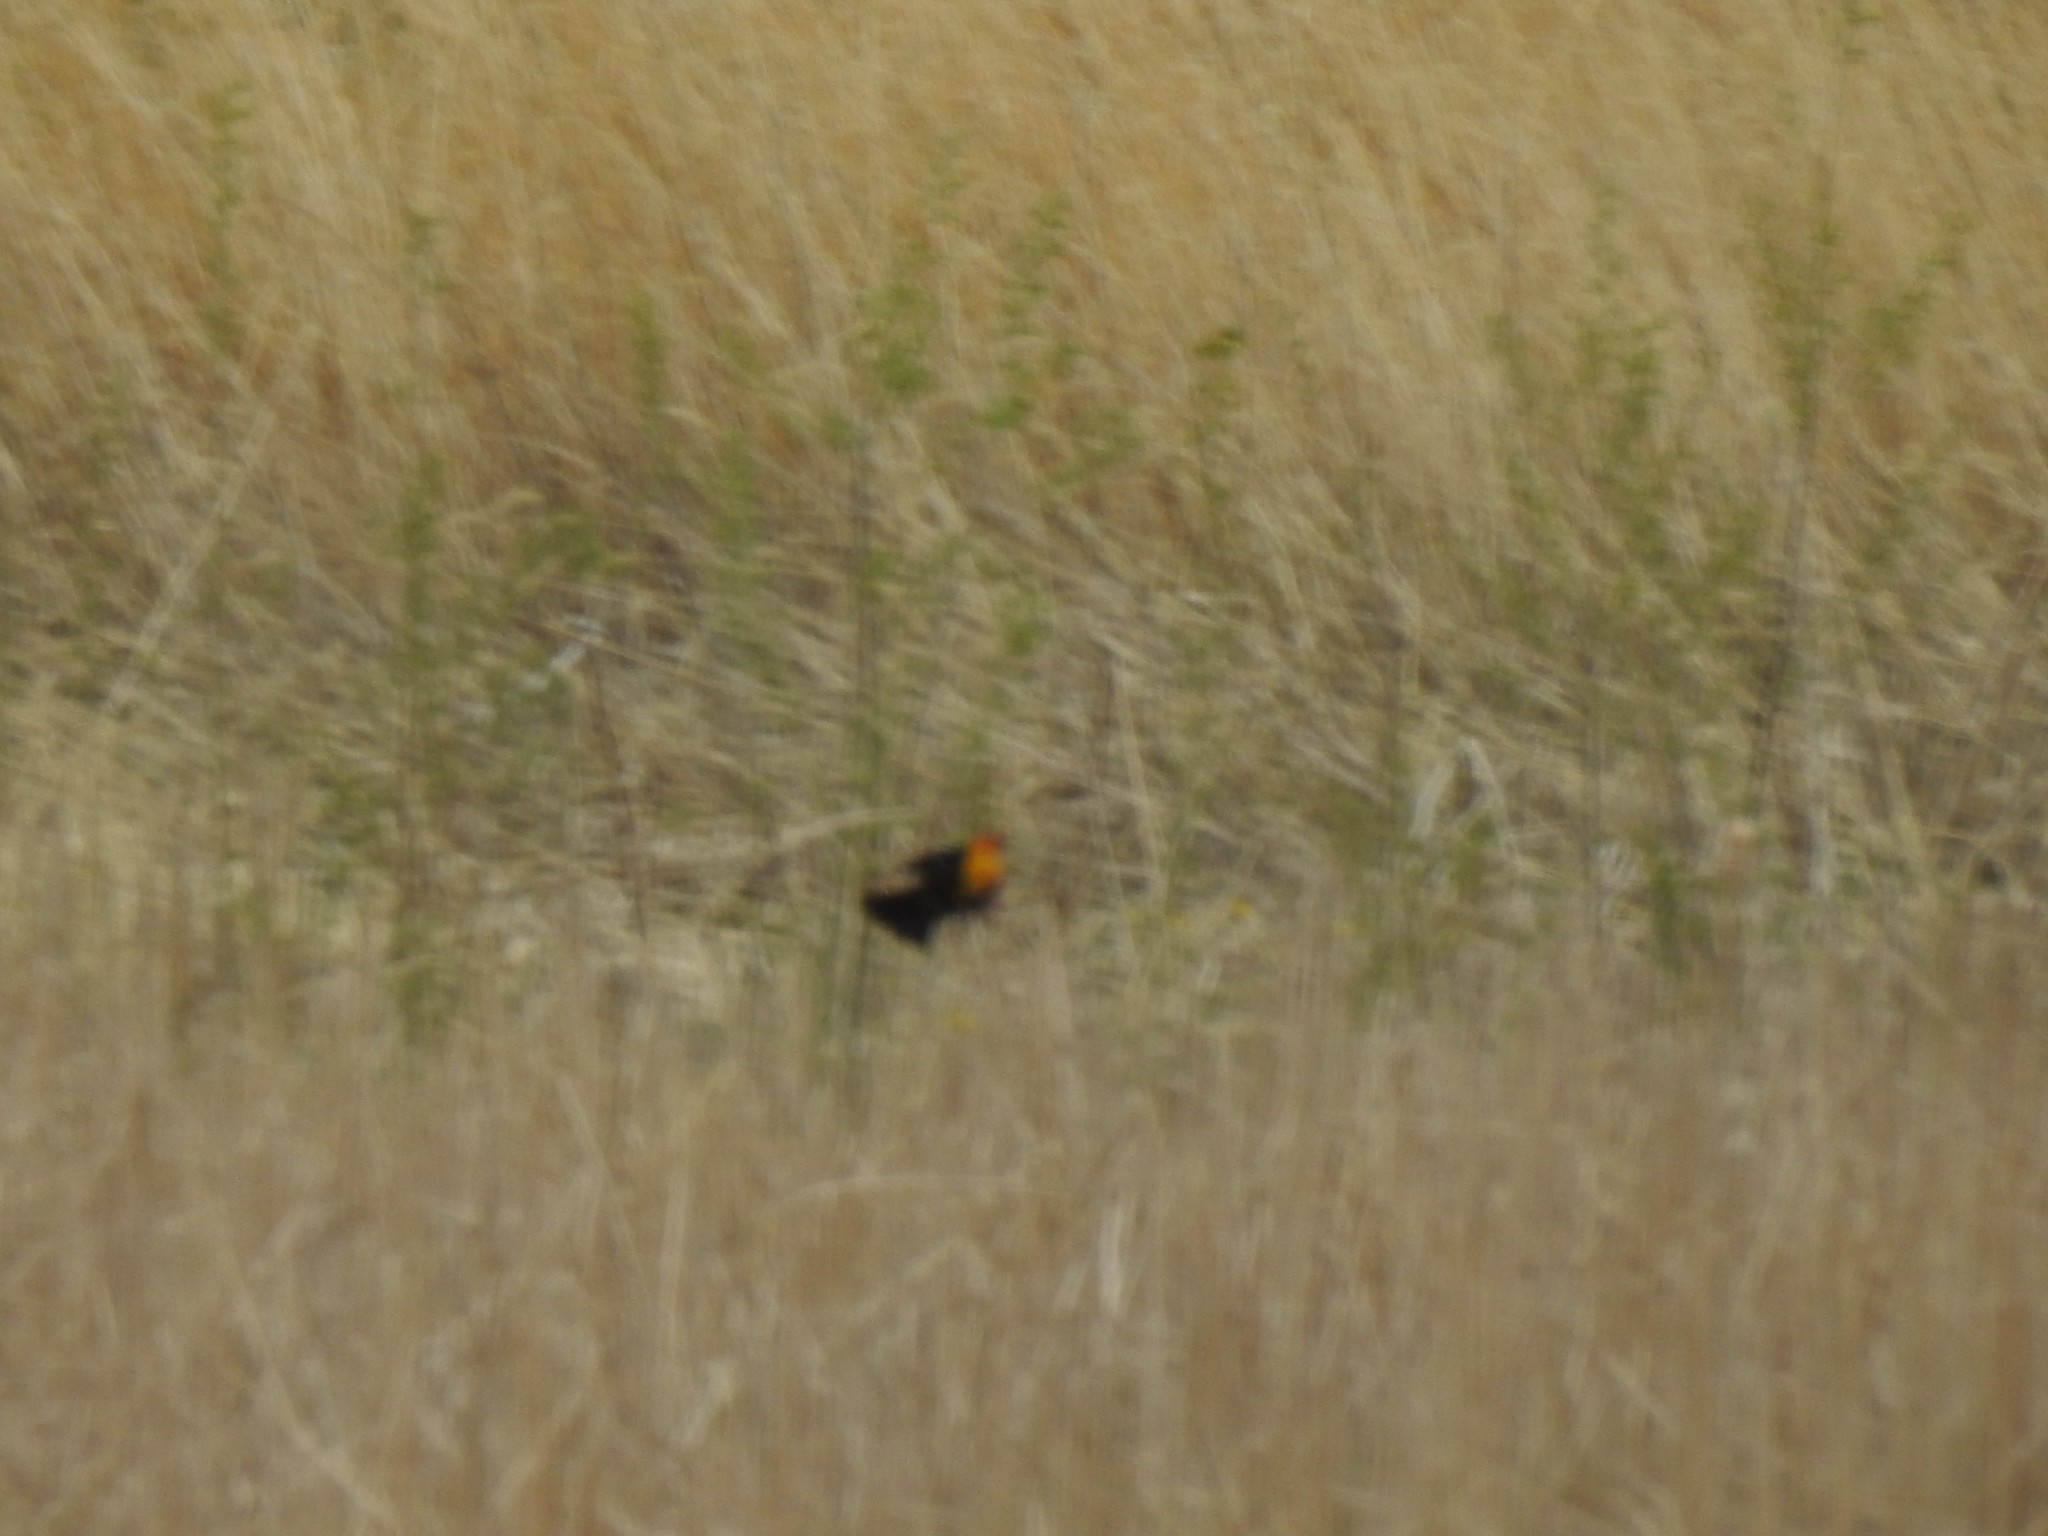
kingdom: Animalia
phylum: Chordata
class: Aves
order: Passeriformes
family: Icteridae
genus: Xanthocephalus
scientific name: Xanthocephalus xanthocephalus
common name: Yellow-headed blackbird
